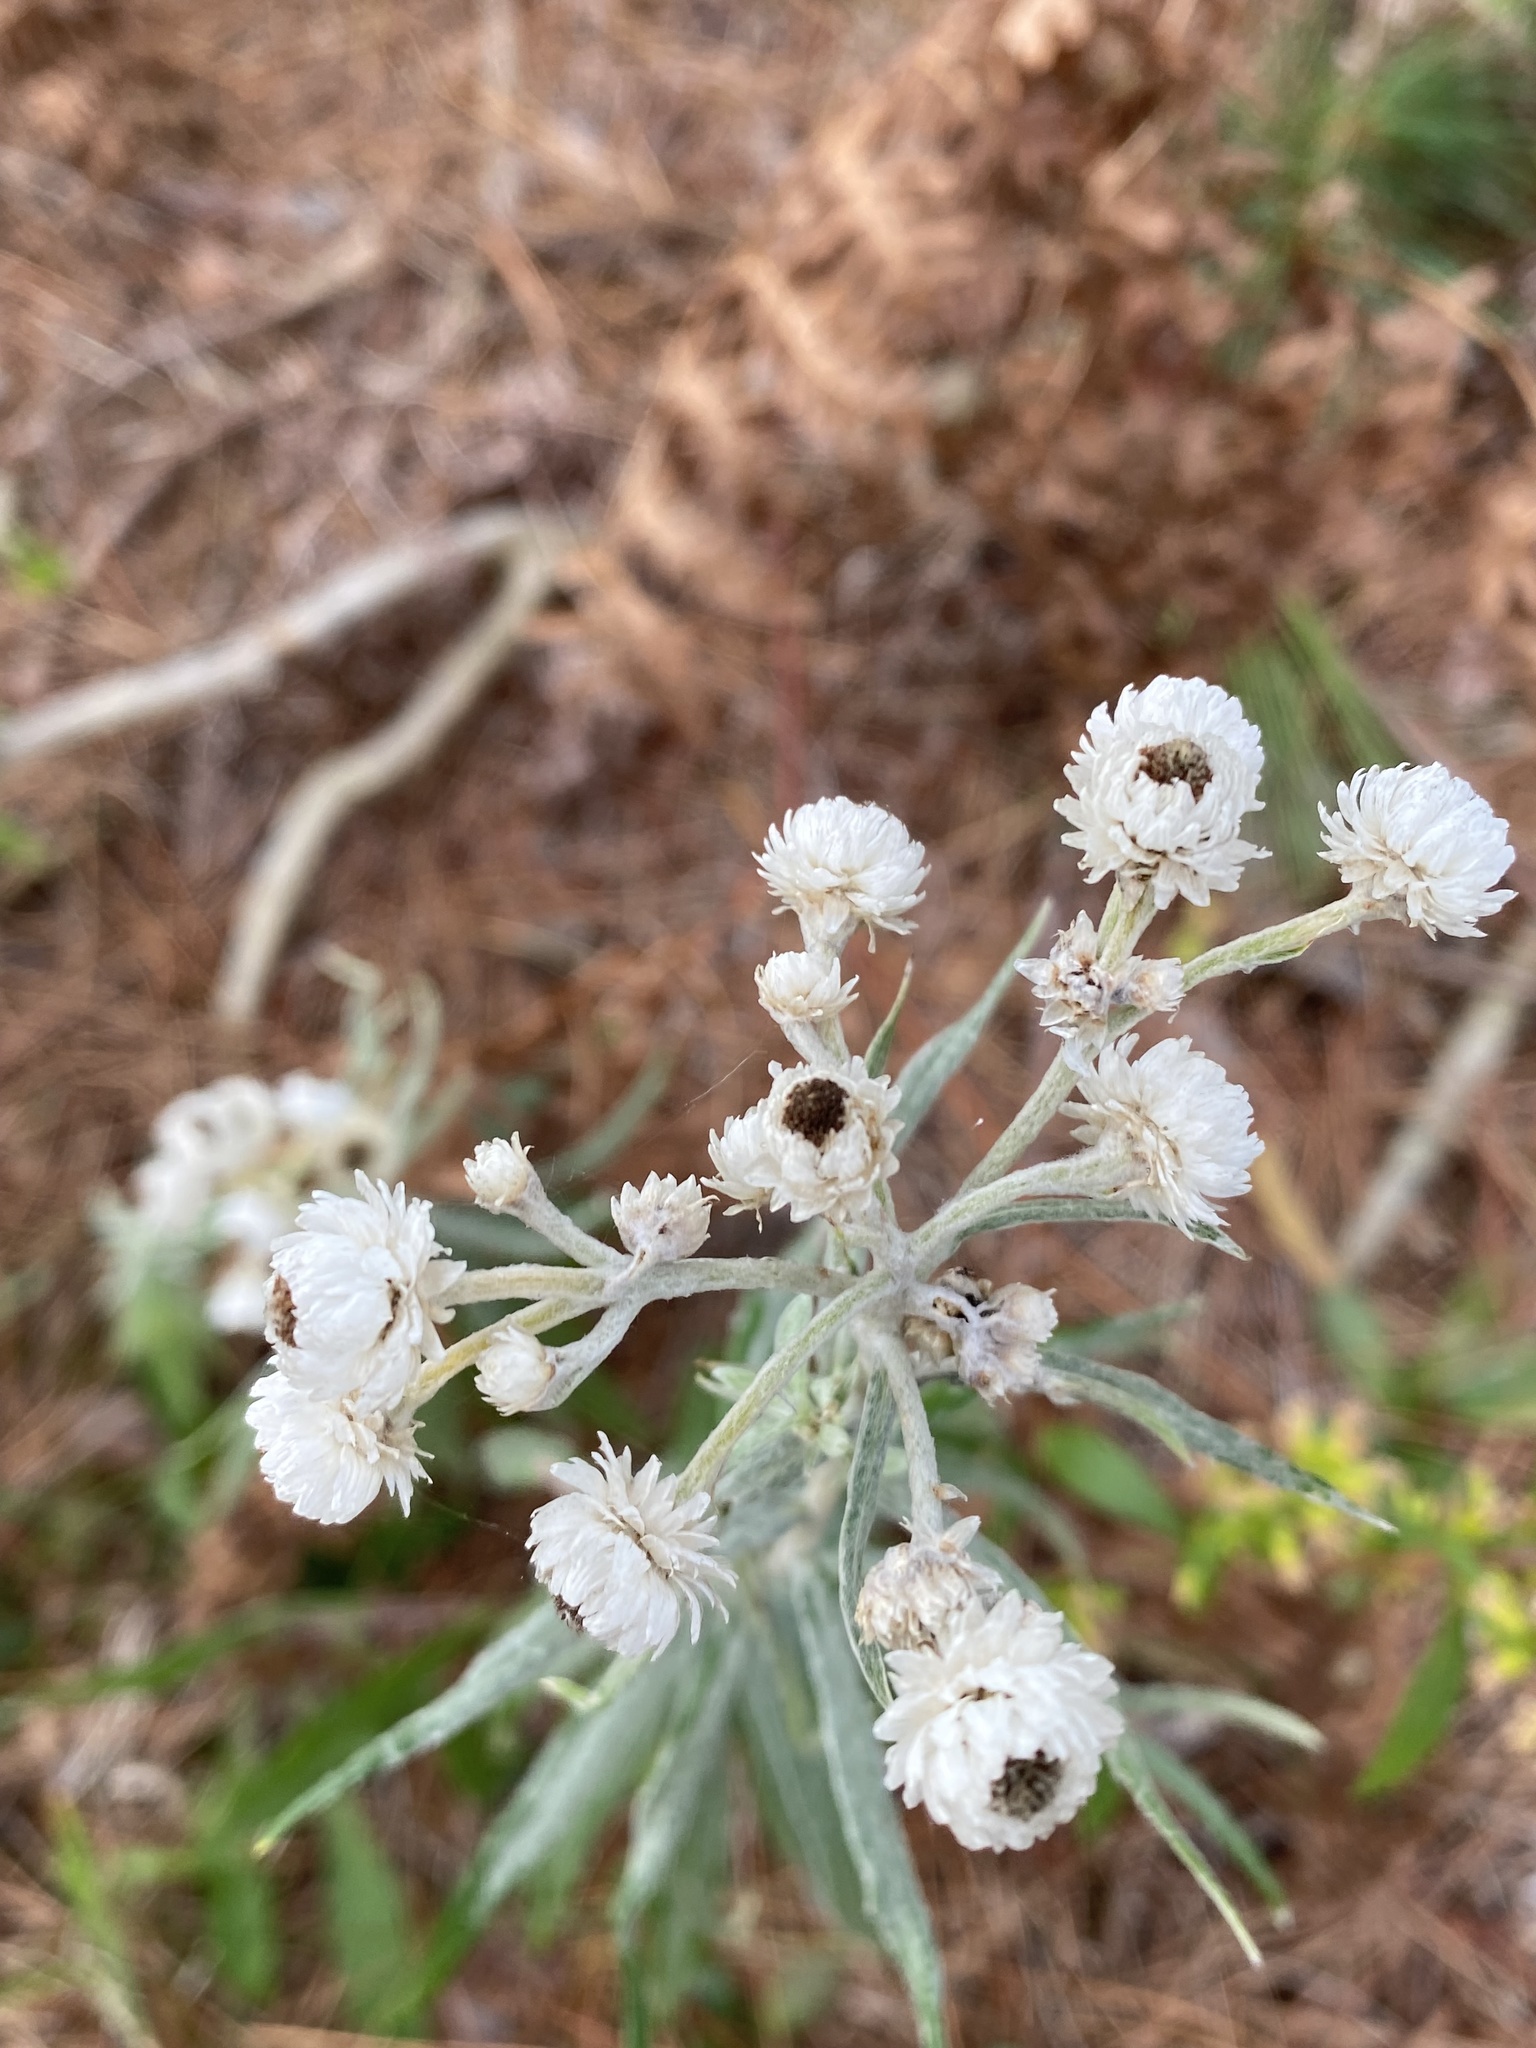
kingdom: Plantae
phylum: Tracheophyta
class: Magnoliopsida
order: Asterales
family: Asteraceae
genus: Anaphalis
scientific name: Anaphalis margaritacea
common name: Pearly everlasting
